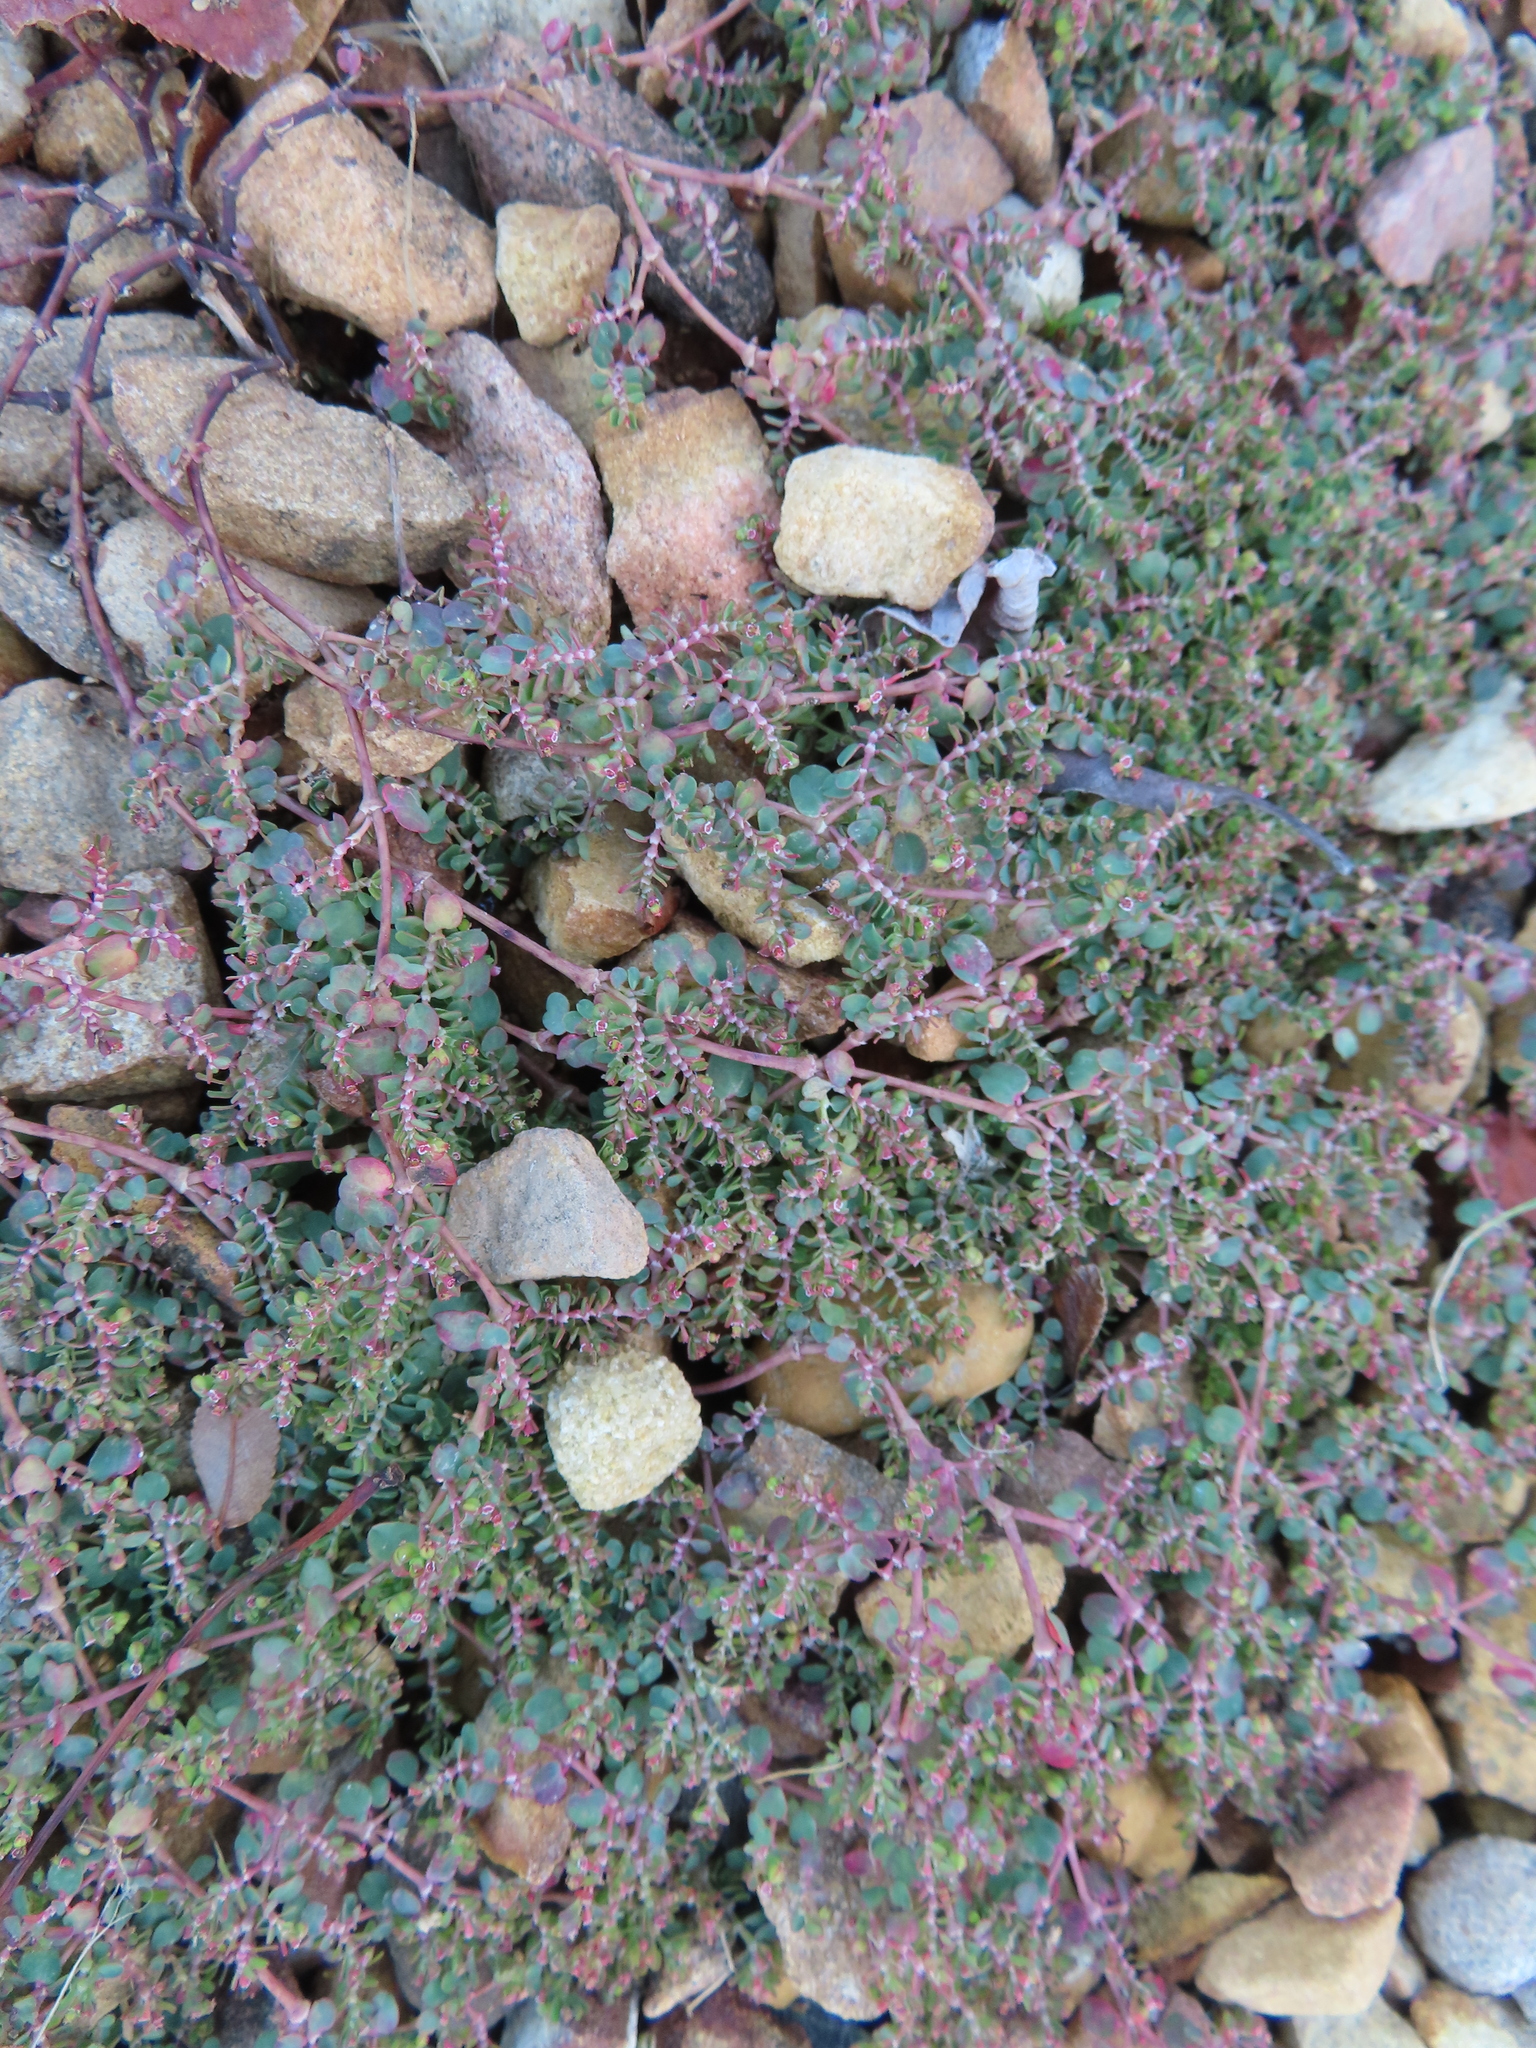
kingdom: Plantae
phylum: Tracheophyta
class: Magnoliopsida
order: Malpighiales
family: Euphorbiaceae
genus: Euphorbia
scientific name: Euphorbia serpens
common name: Matted sandmat
